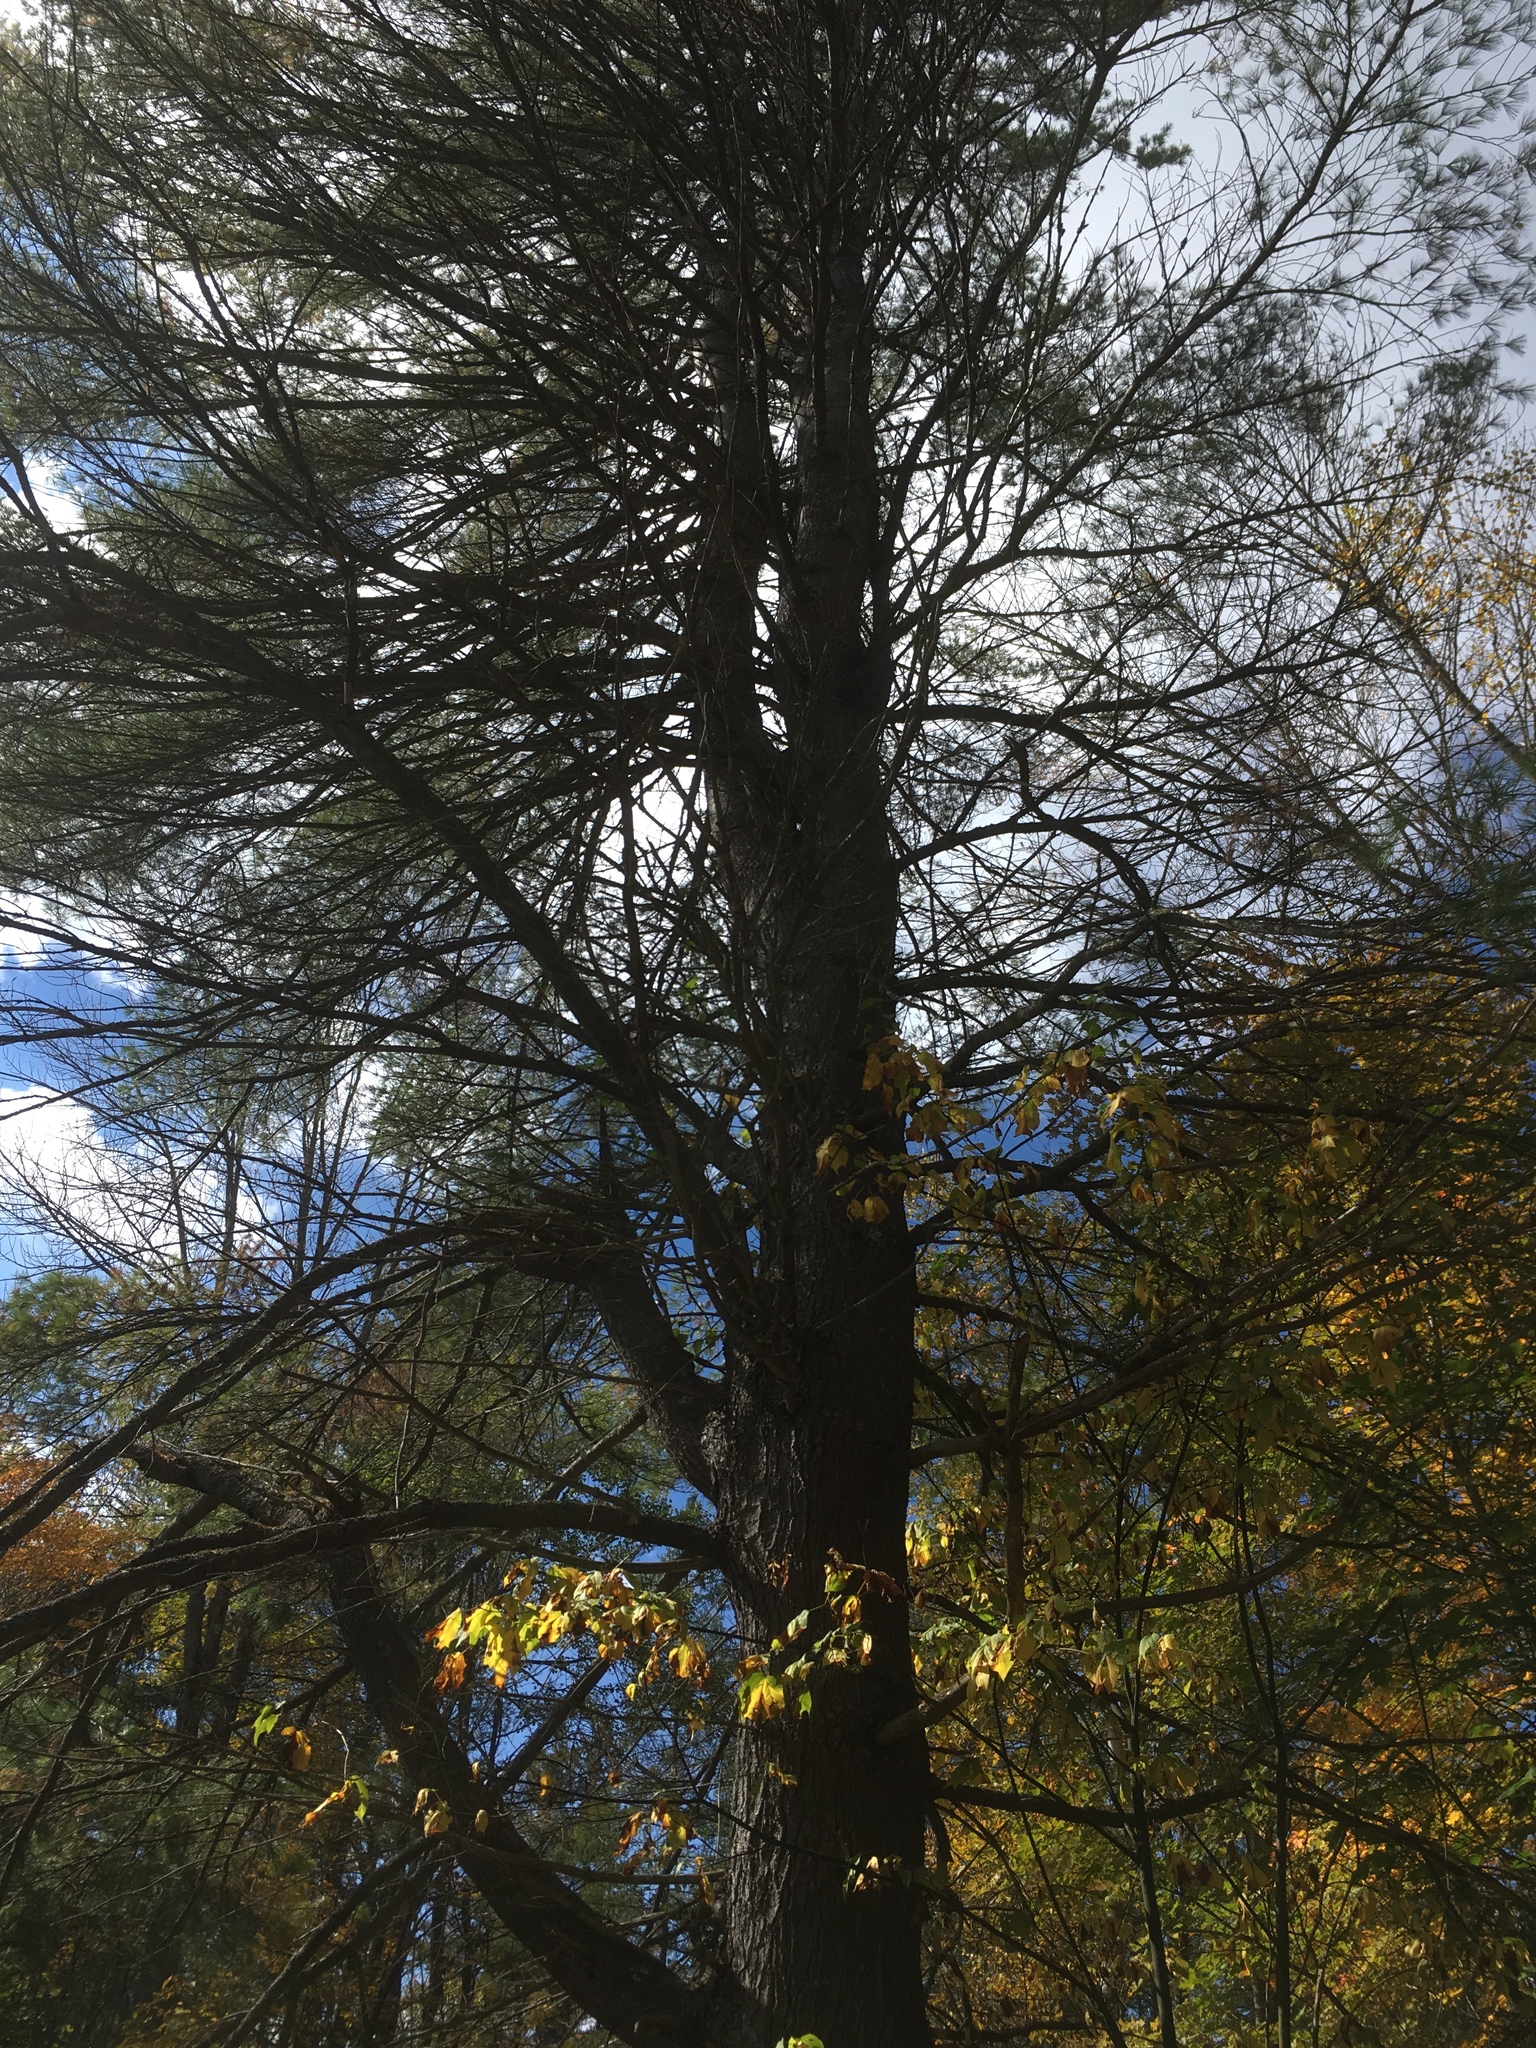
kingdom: Plantae
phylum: Tracheophyta
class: Pinopsida
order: Pinales
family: Pinaceae
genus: Pinus
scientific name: Pinus strobus
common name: Weymouth pine
